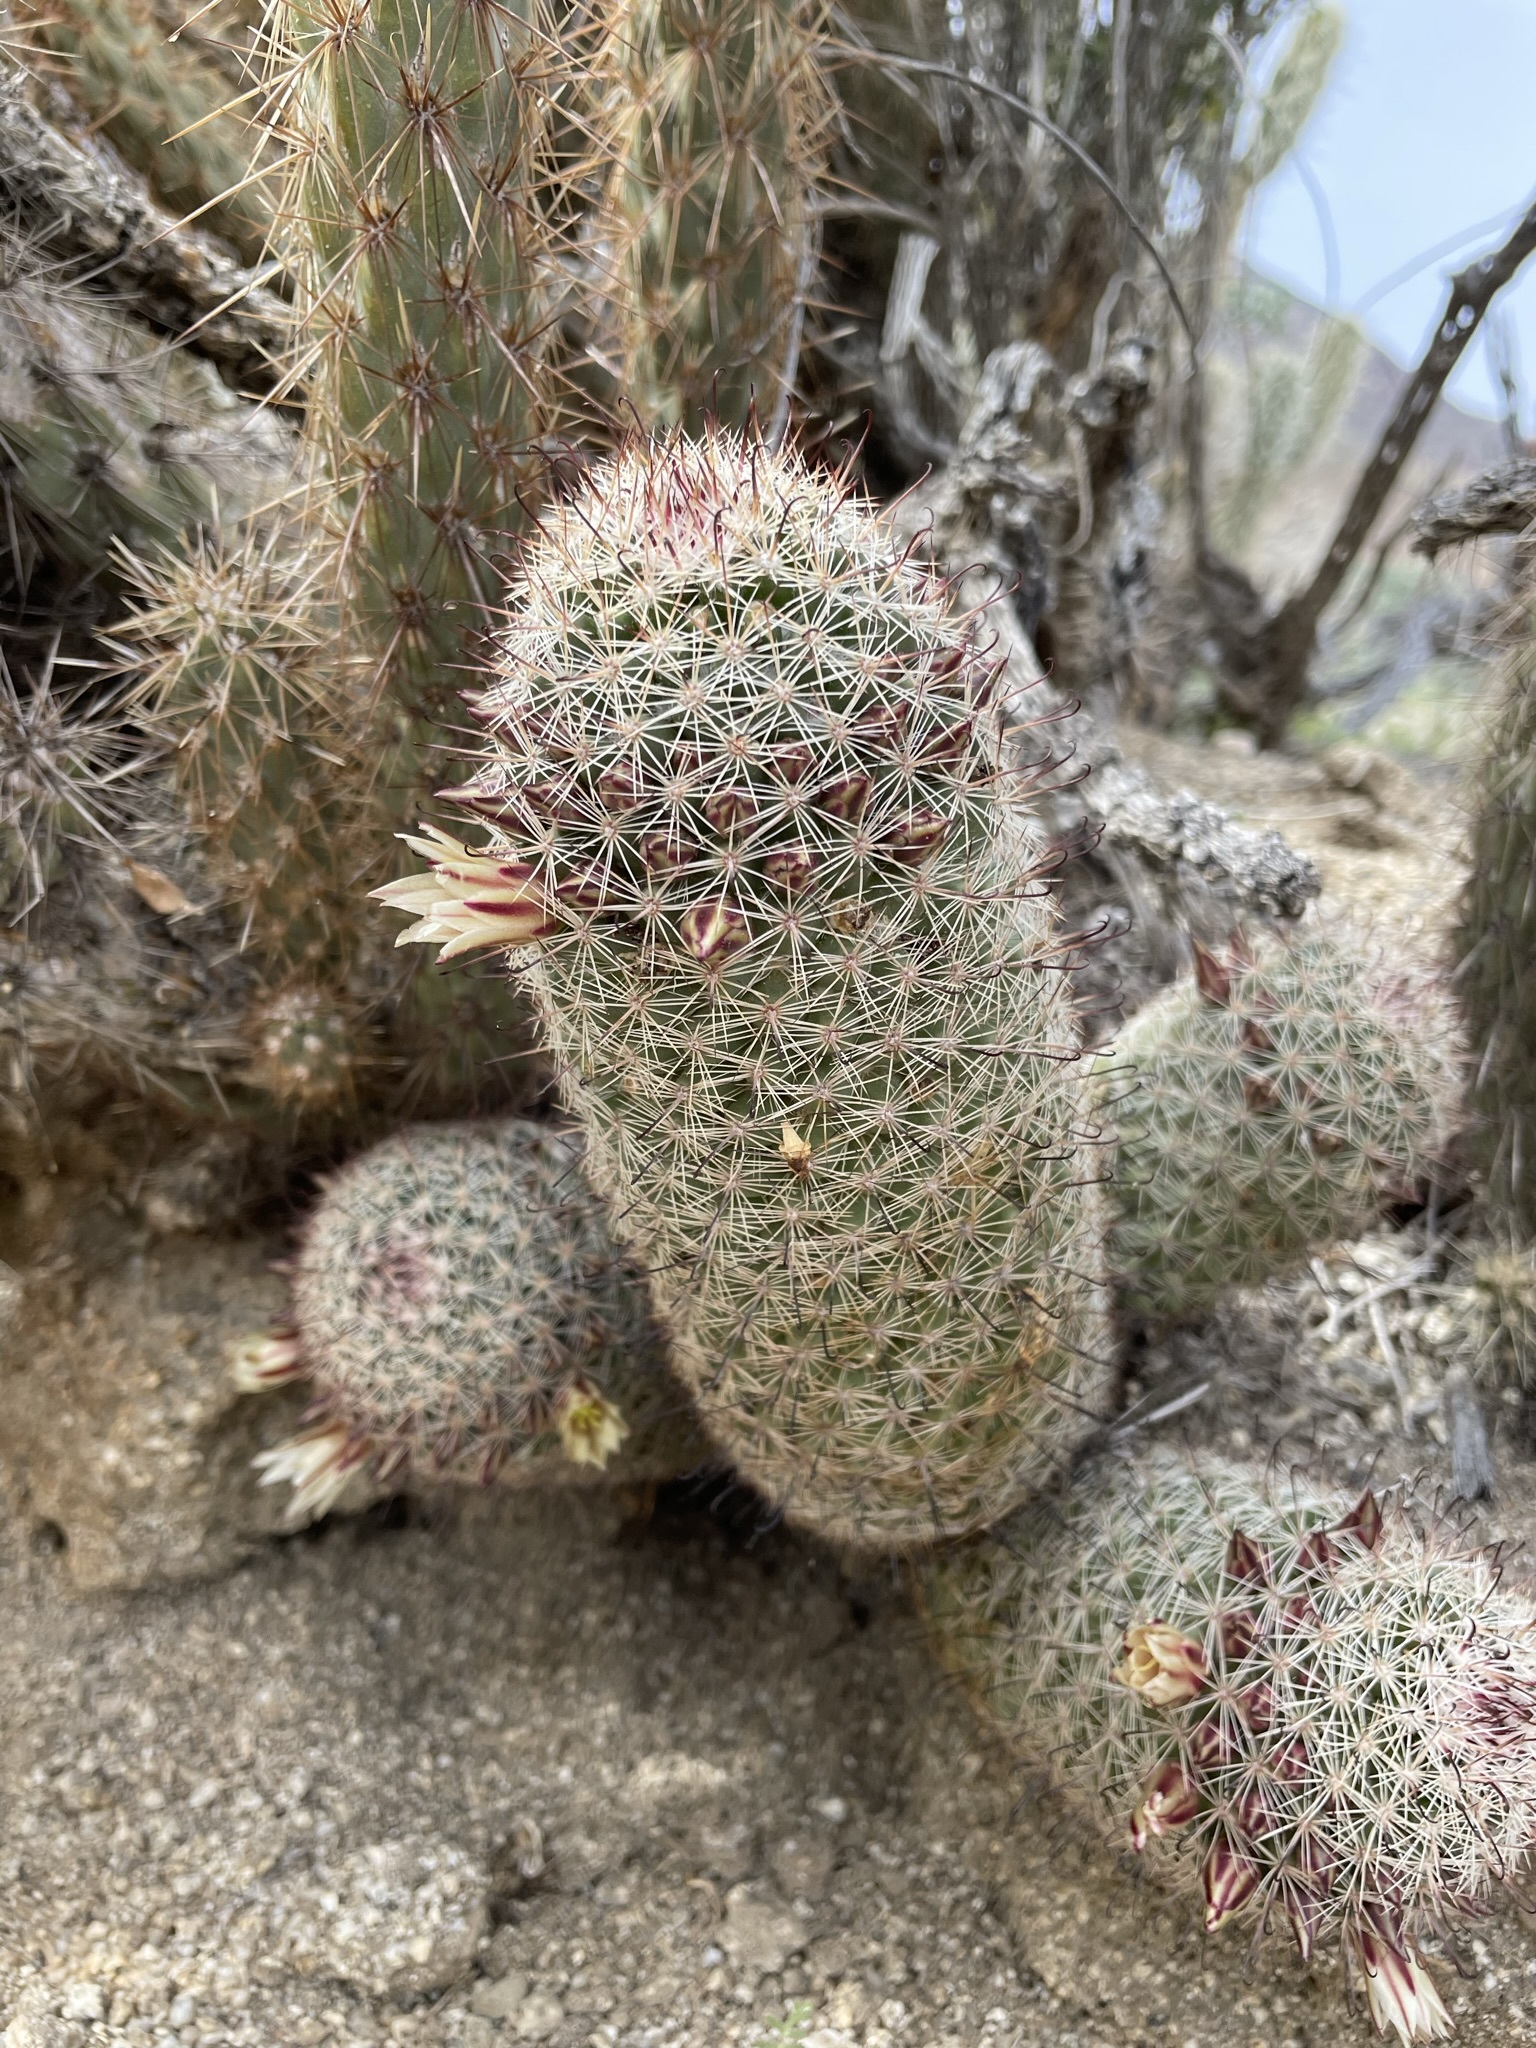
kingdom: Plantae
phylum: Tracheophyta
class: Magnoliopsida
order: Caryophyllales
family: Cactaceae
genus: Cochemiea
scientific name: Cochemiea dioica
